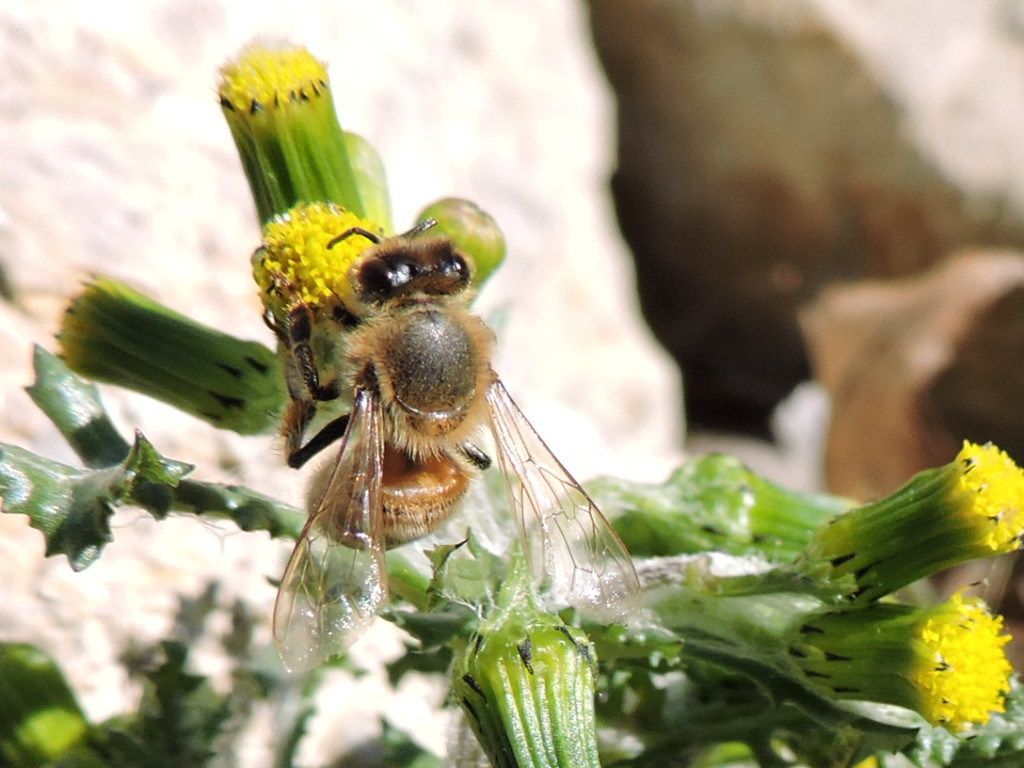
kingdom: Animalia
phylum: Arthropoda
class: Insecta
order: Hymenoptera
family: Apidae
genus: Apis
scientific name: Apis mellifera
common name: Honey bee
